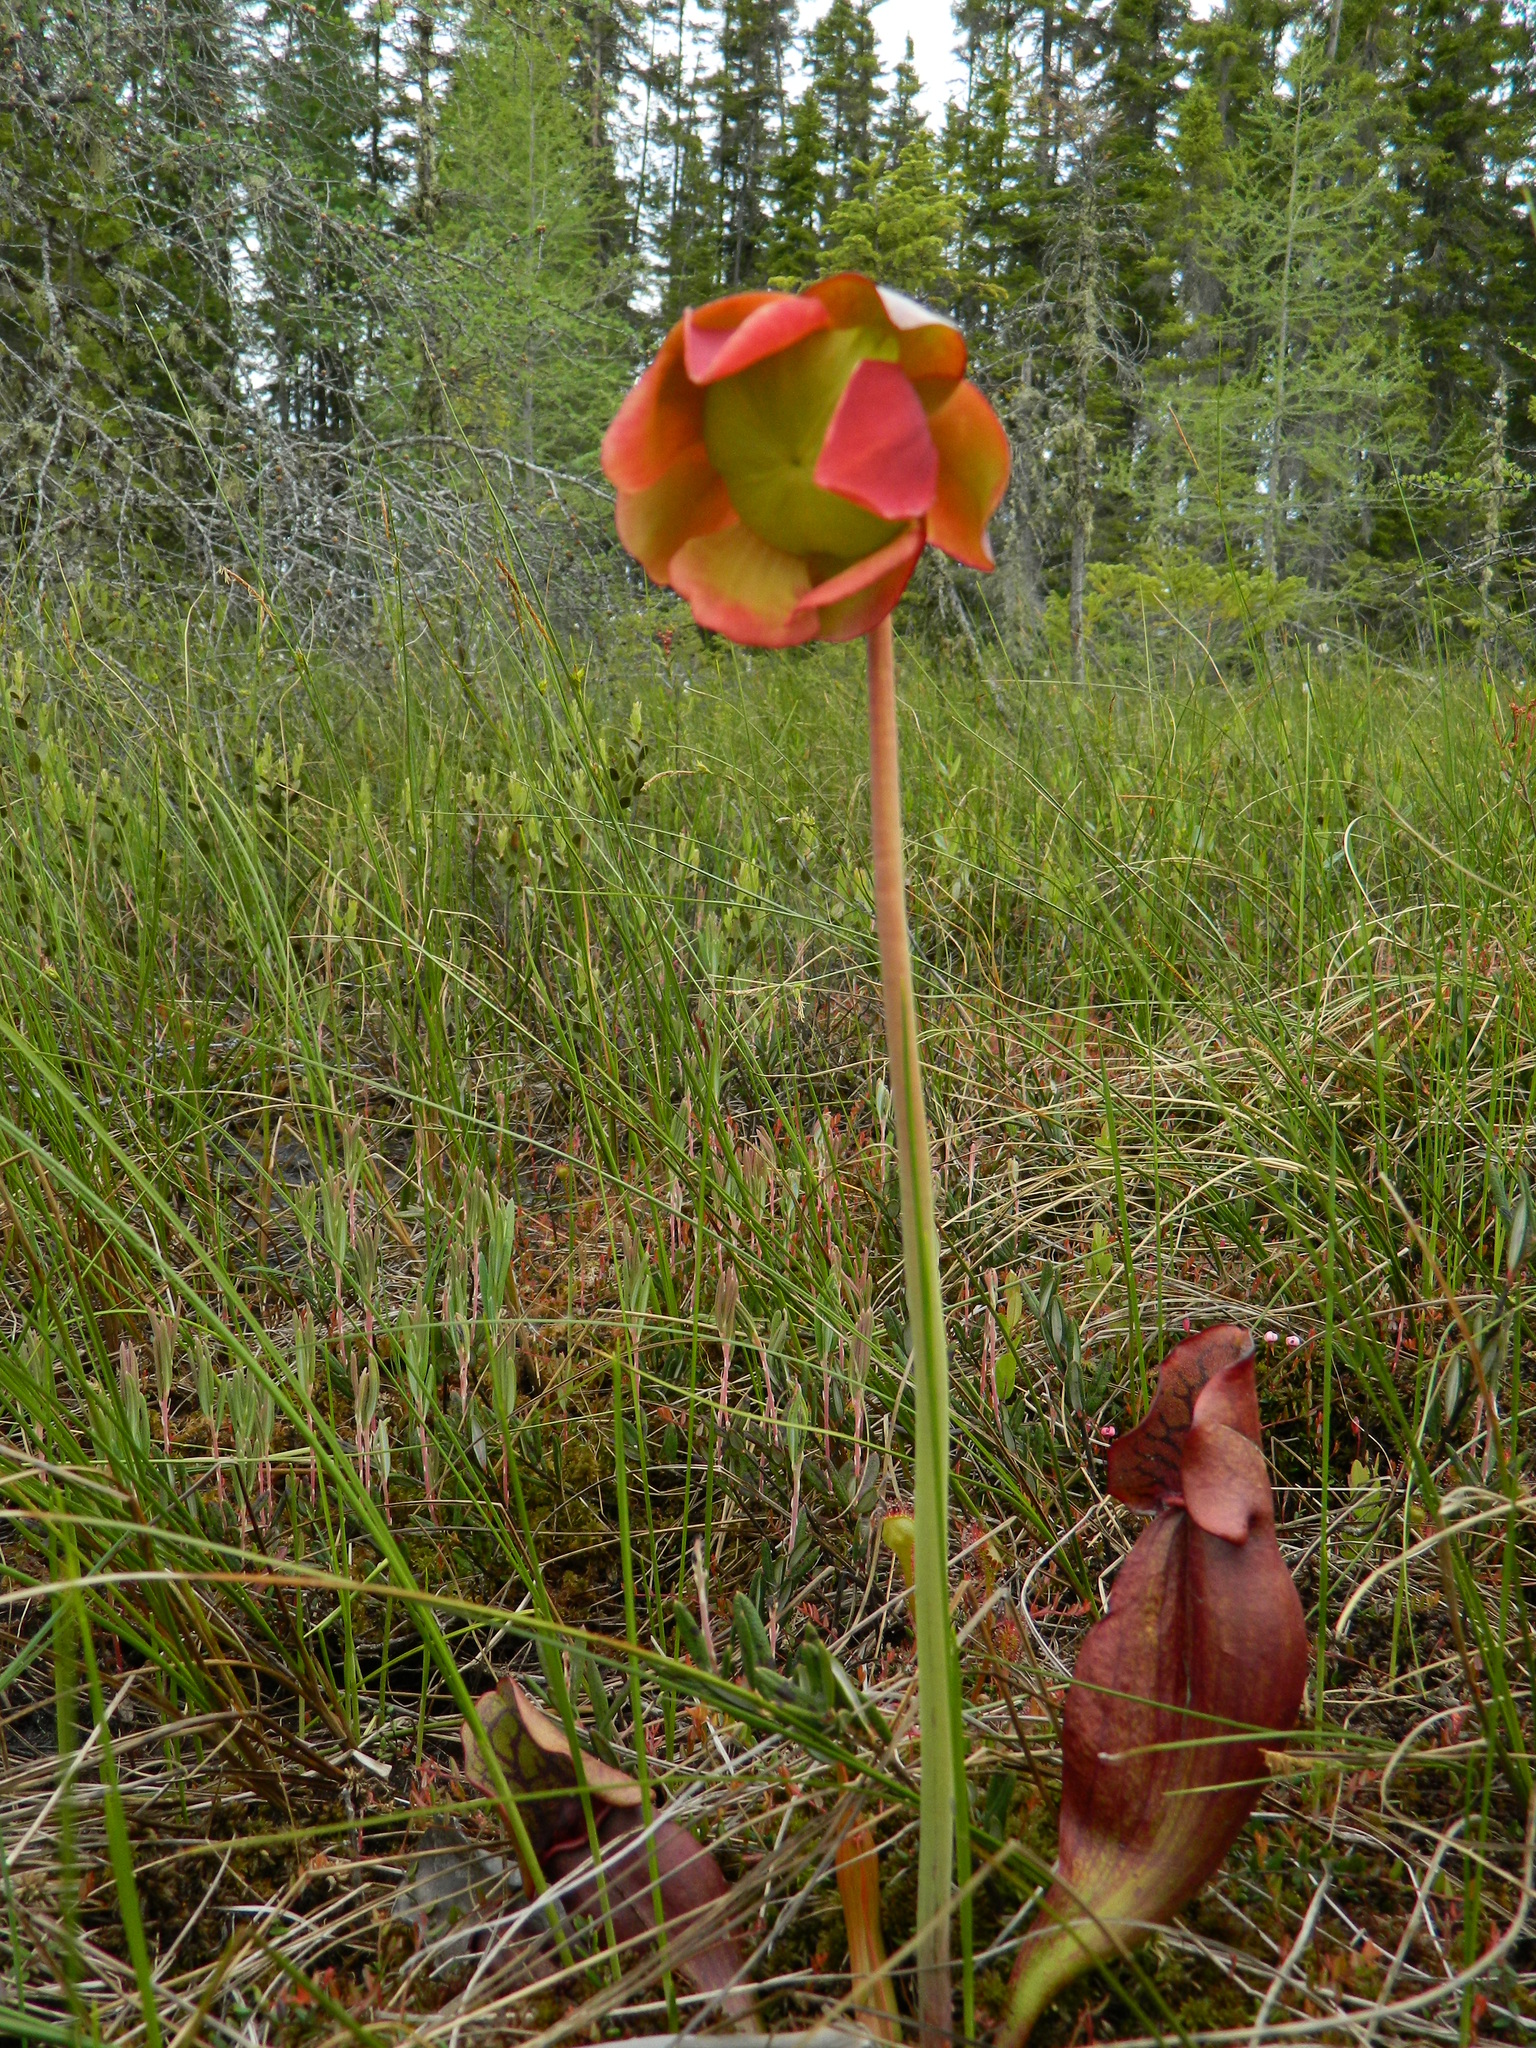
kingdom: Plantae
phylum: Tracheophyta
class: Magnoliopsida
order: Ericales
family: Sarraceniaceae
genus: Sarracenia
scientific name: Sarracenia purpurea
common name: Pitcherplant
